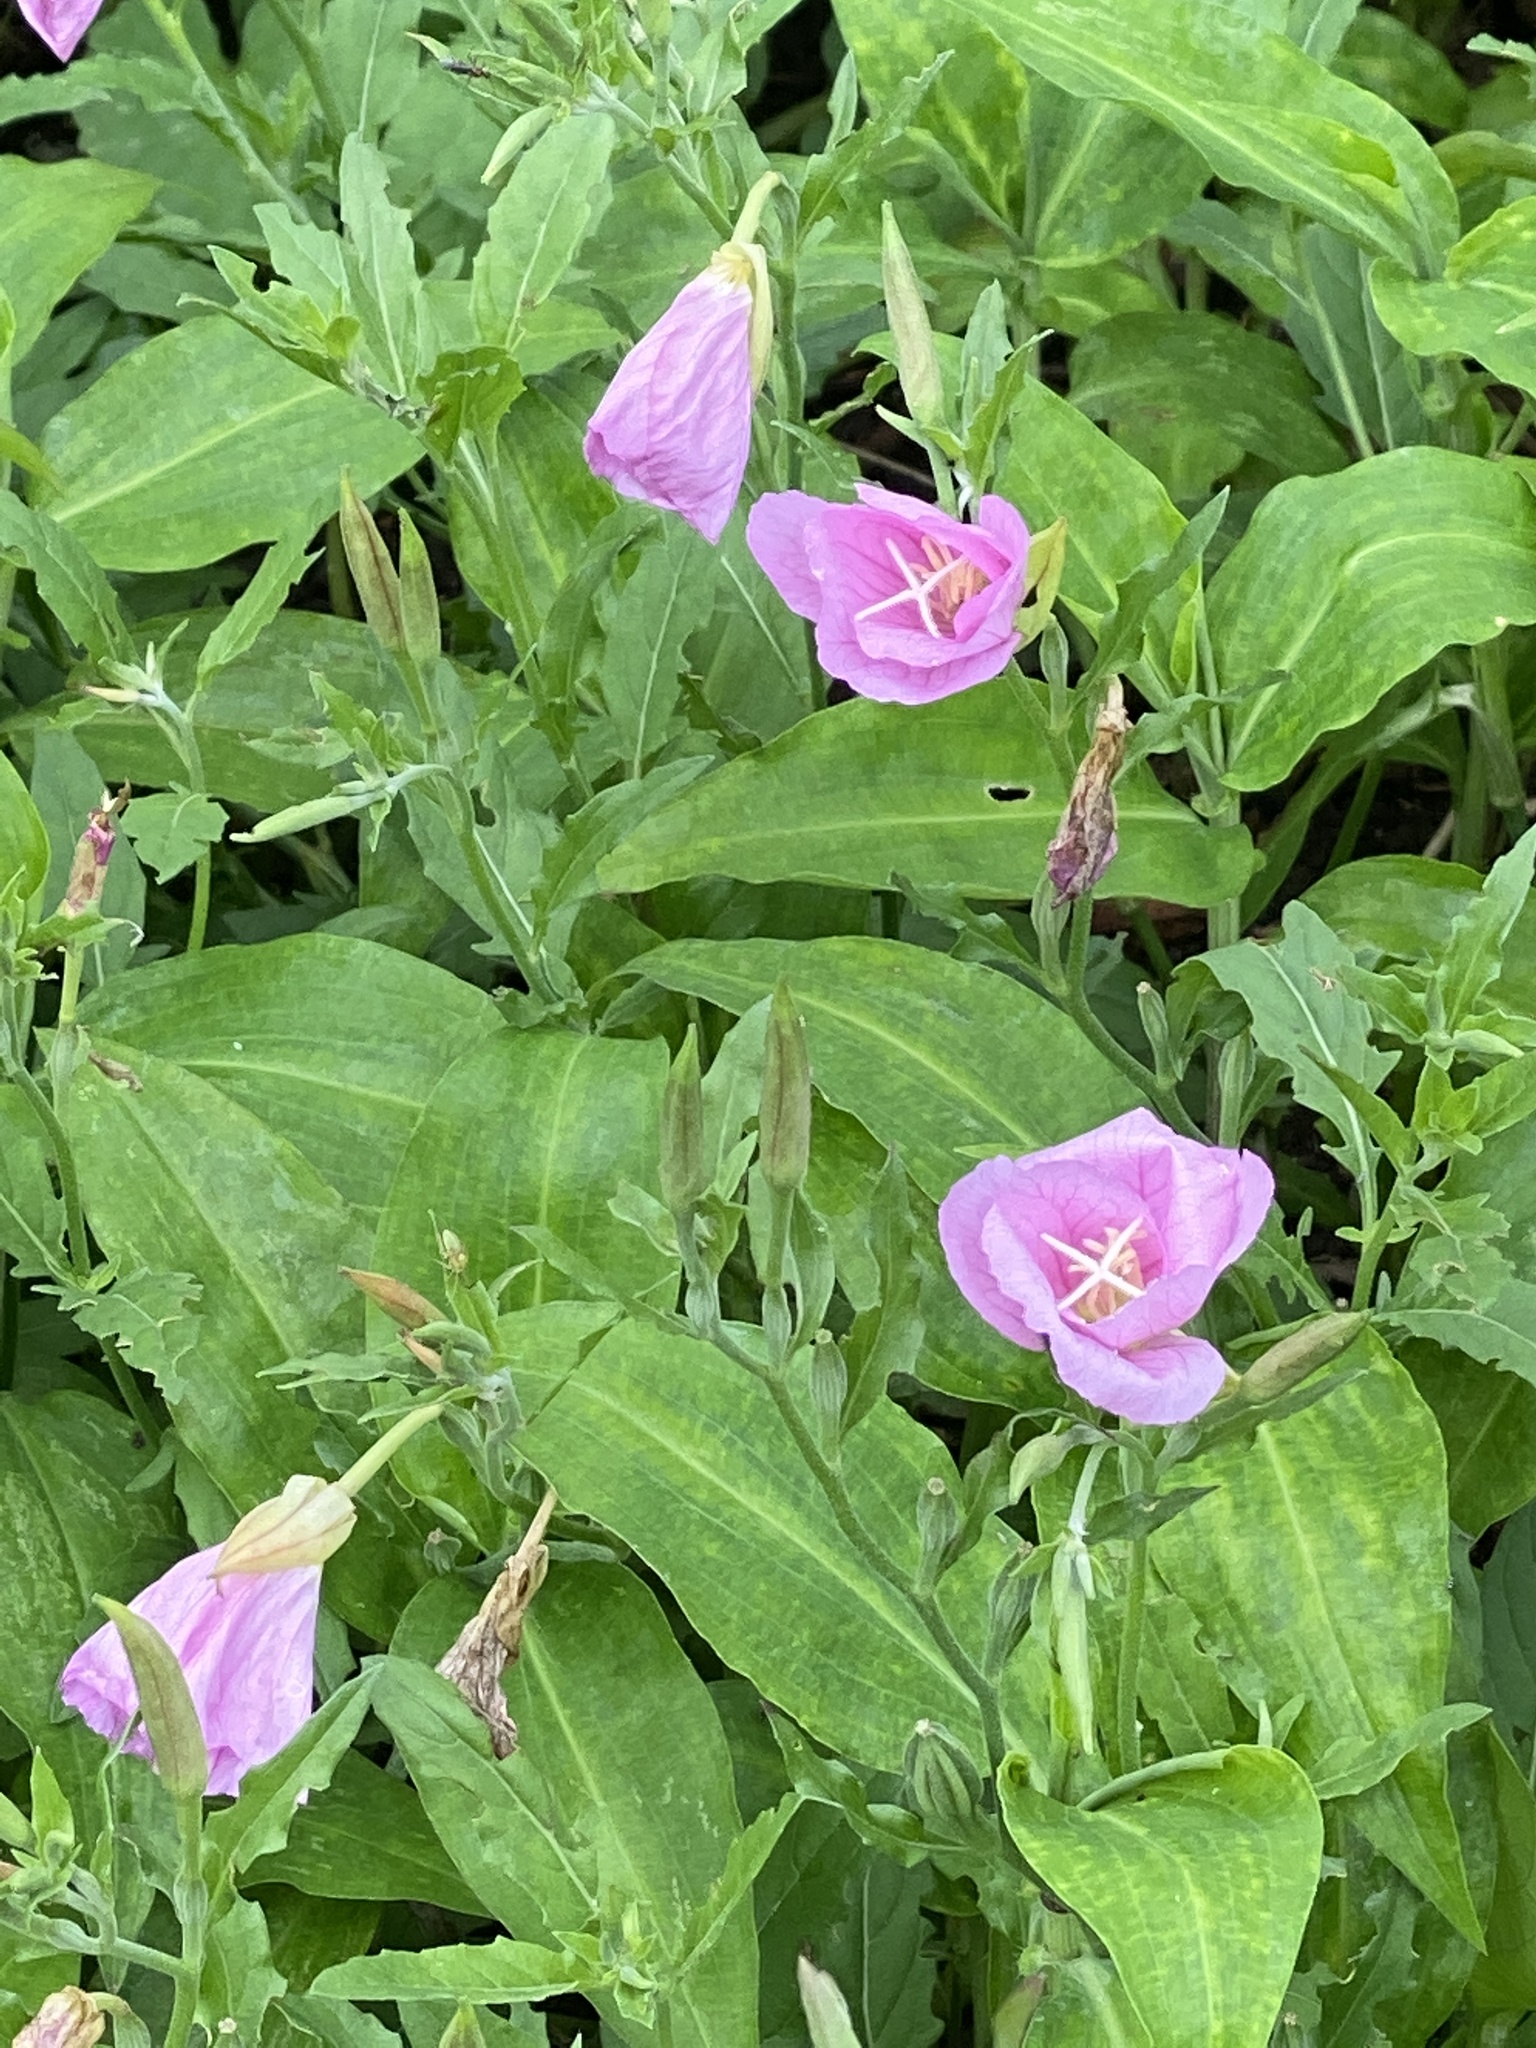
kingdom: Plantae
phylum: Tracheophyta
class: Magnoliopsida
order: Myrtales
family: Onagraceae
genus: Oenothera
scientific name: Oenothera speciosa
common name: White evening-primrose
